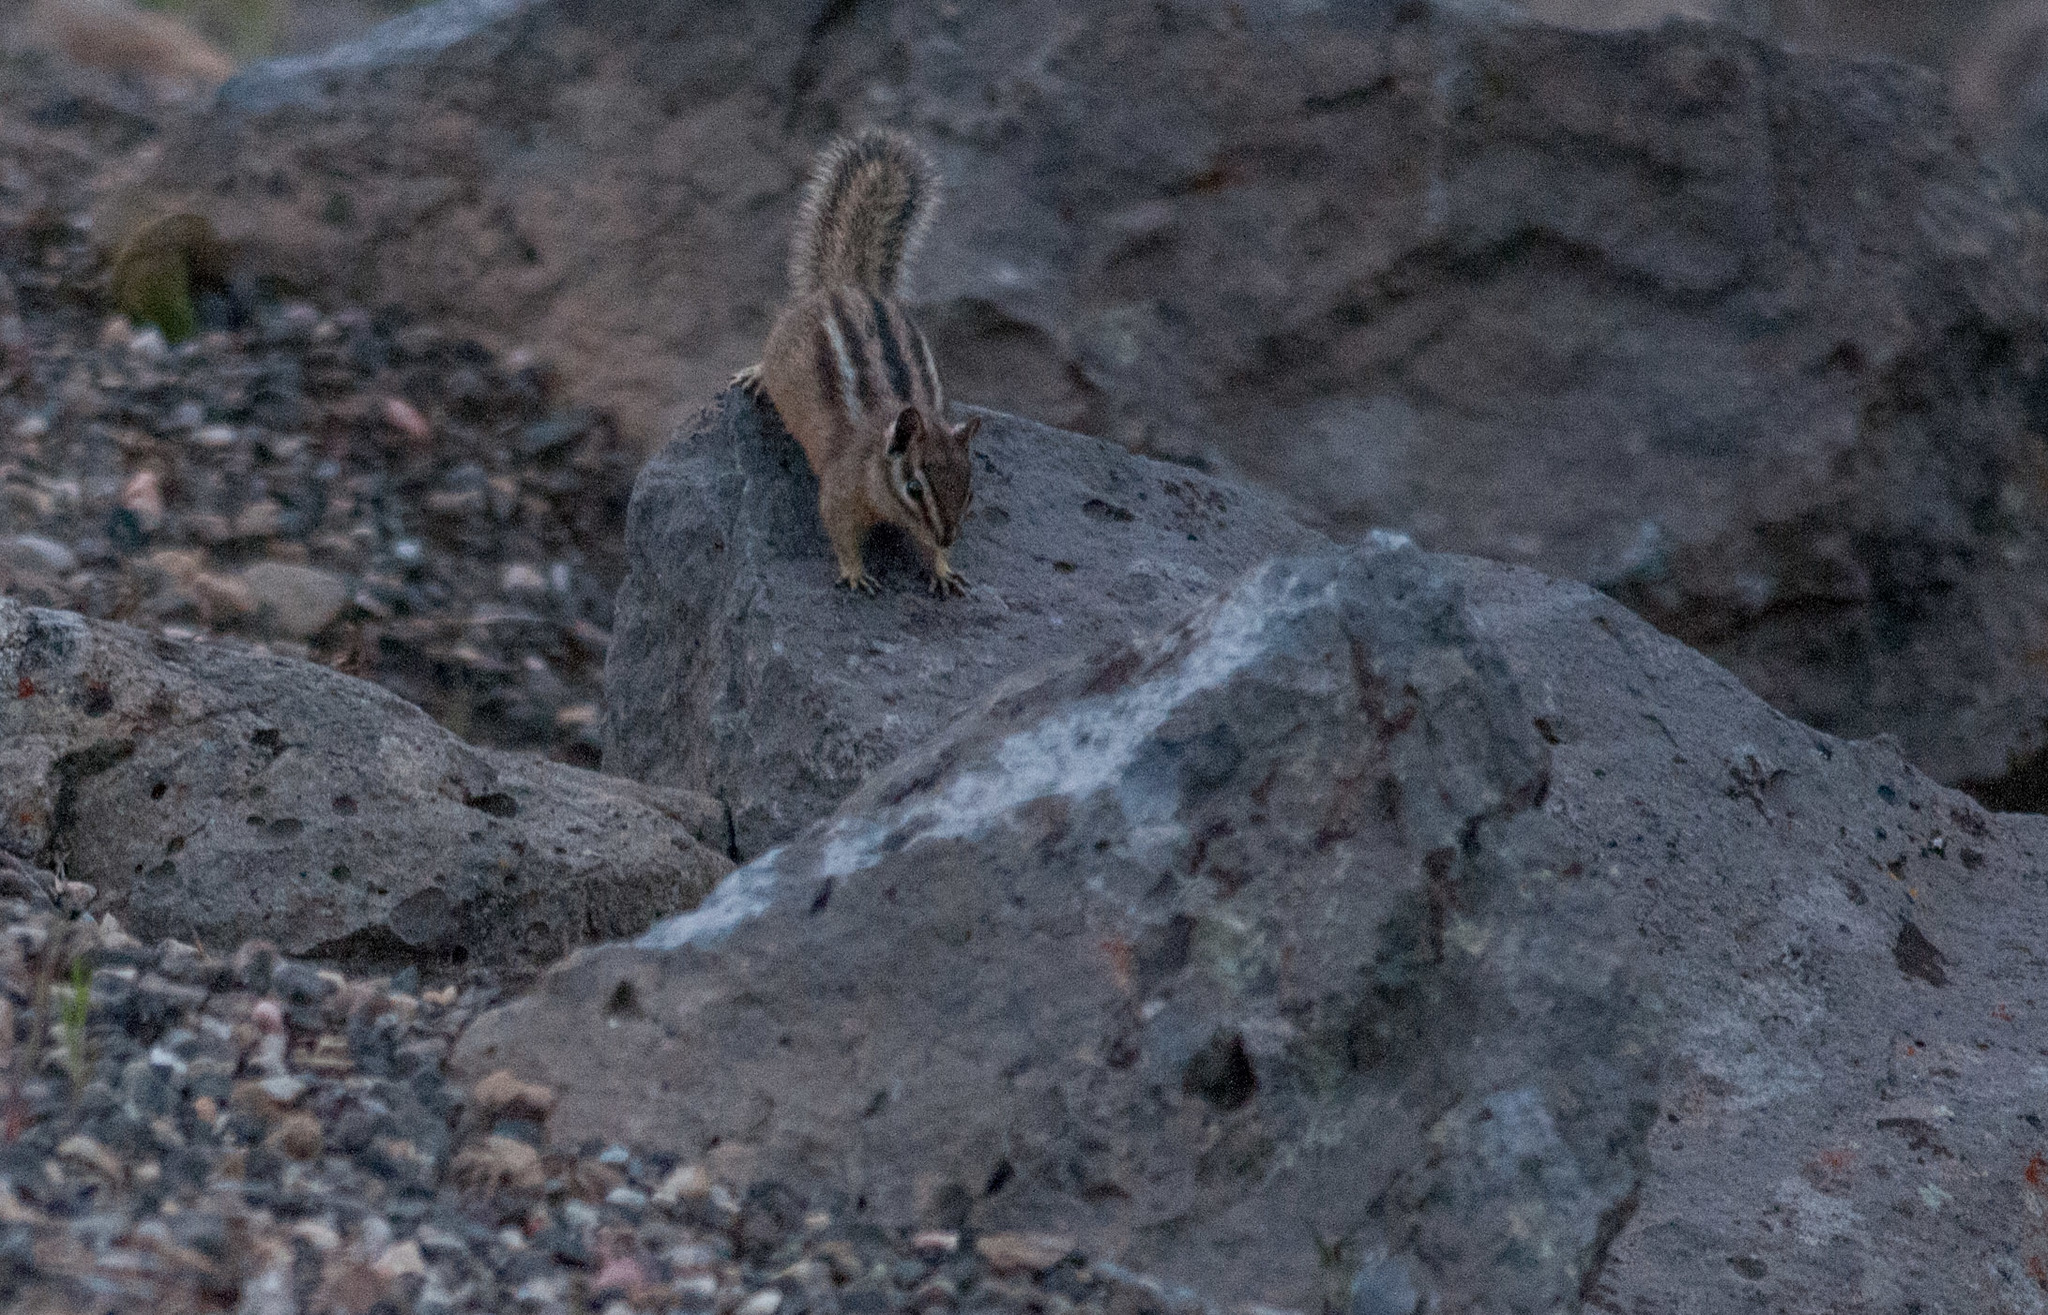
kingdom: Animalia
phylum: Chordata
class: Mammalia
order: Rodentia
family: Sciuridae
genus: Tamias
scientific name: Tamias minimus
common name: Least chipmunk
